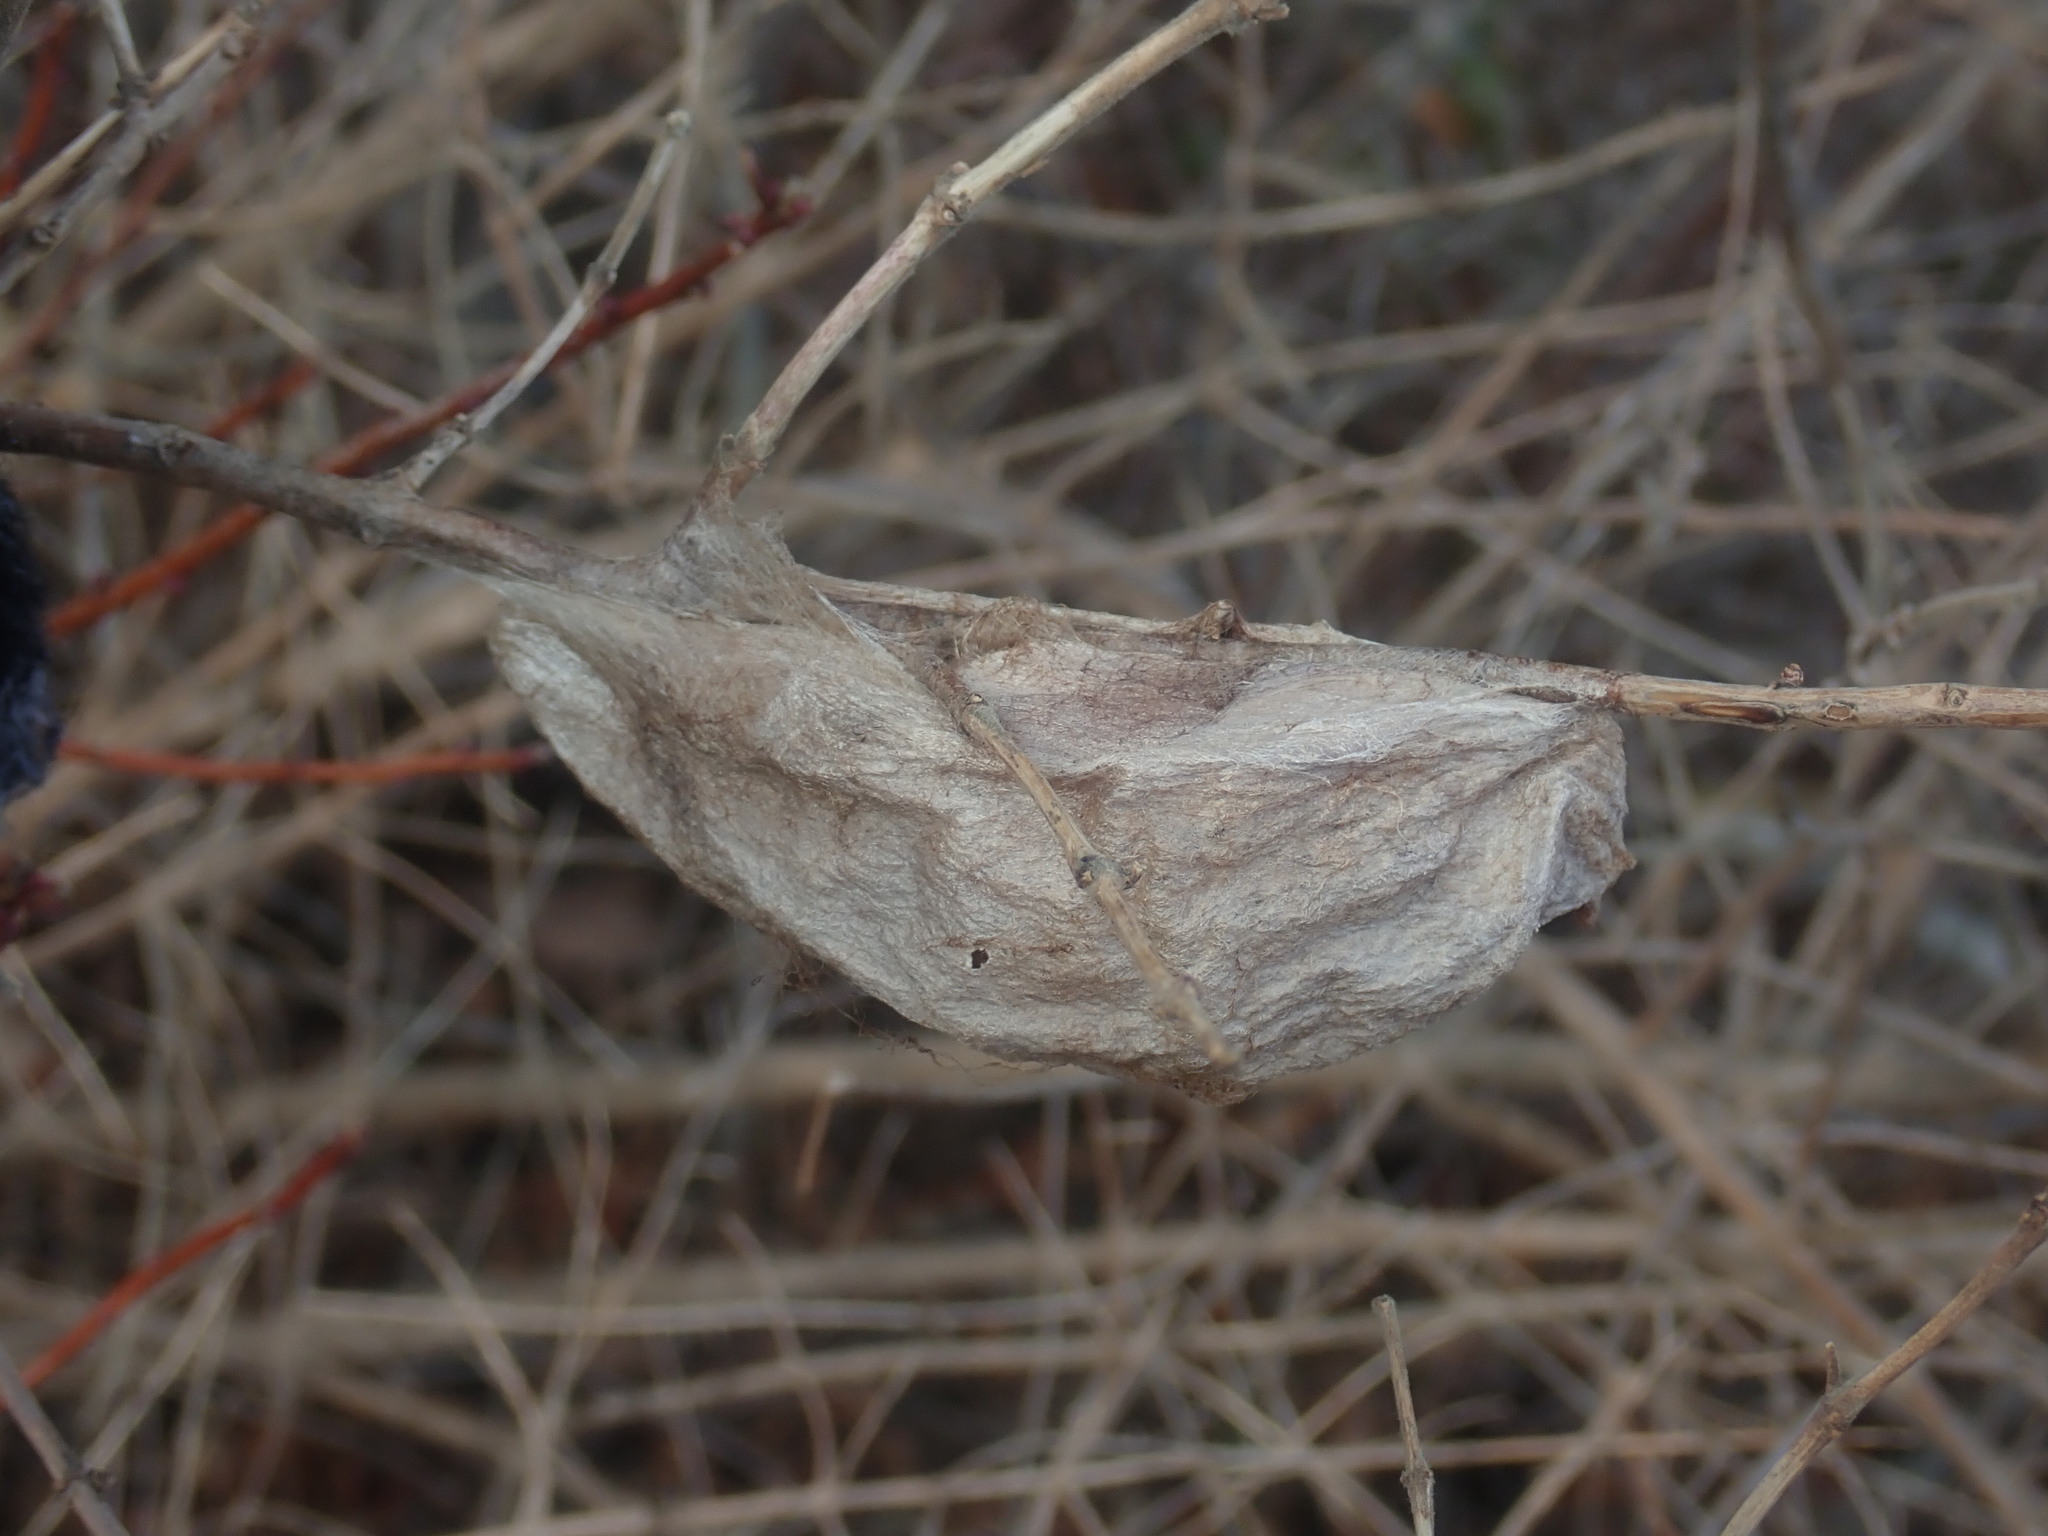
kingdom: Animalia
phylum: Arthropoda
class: Insecta
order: Lepidoptera
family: Saturniidae
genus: Hyalophora
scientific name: Hyalophora cecropia
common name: Cecropia silkmoth
